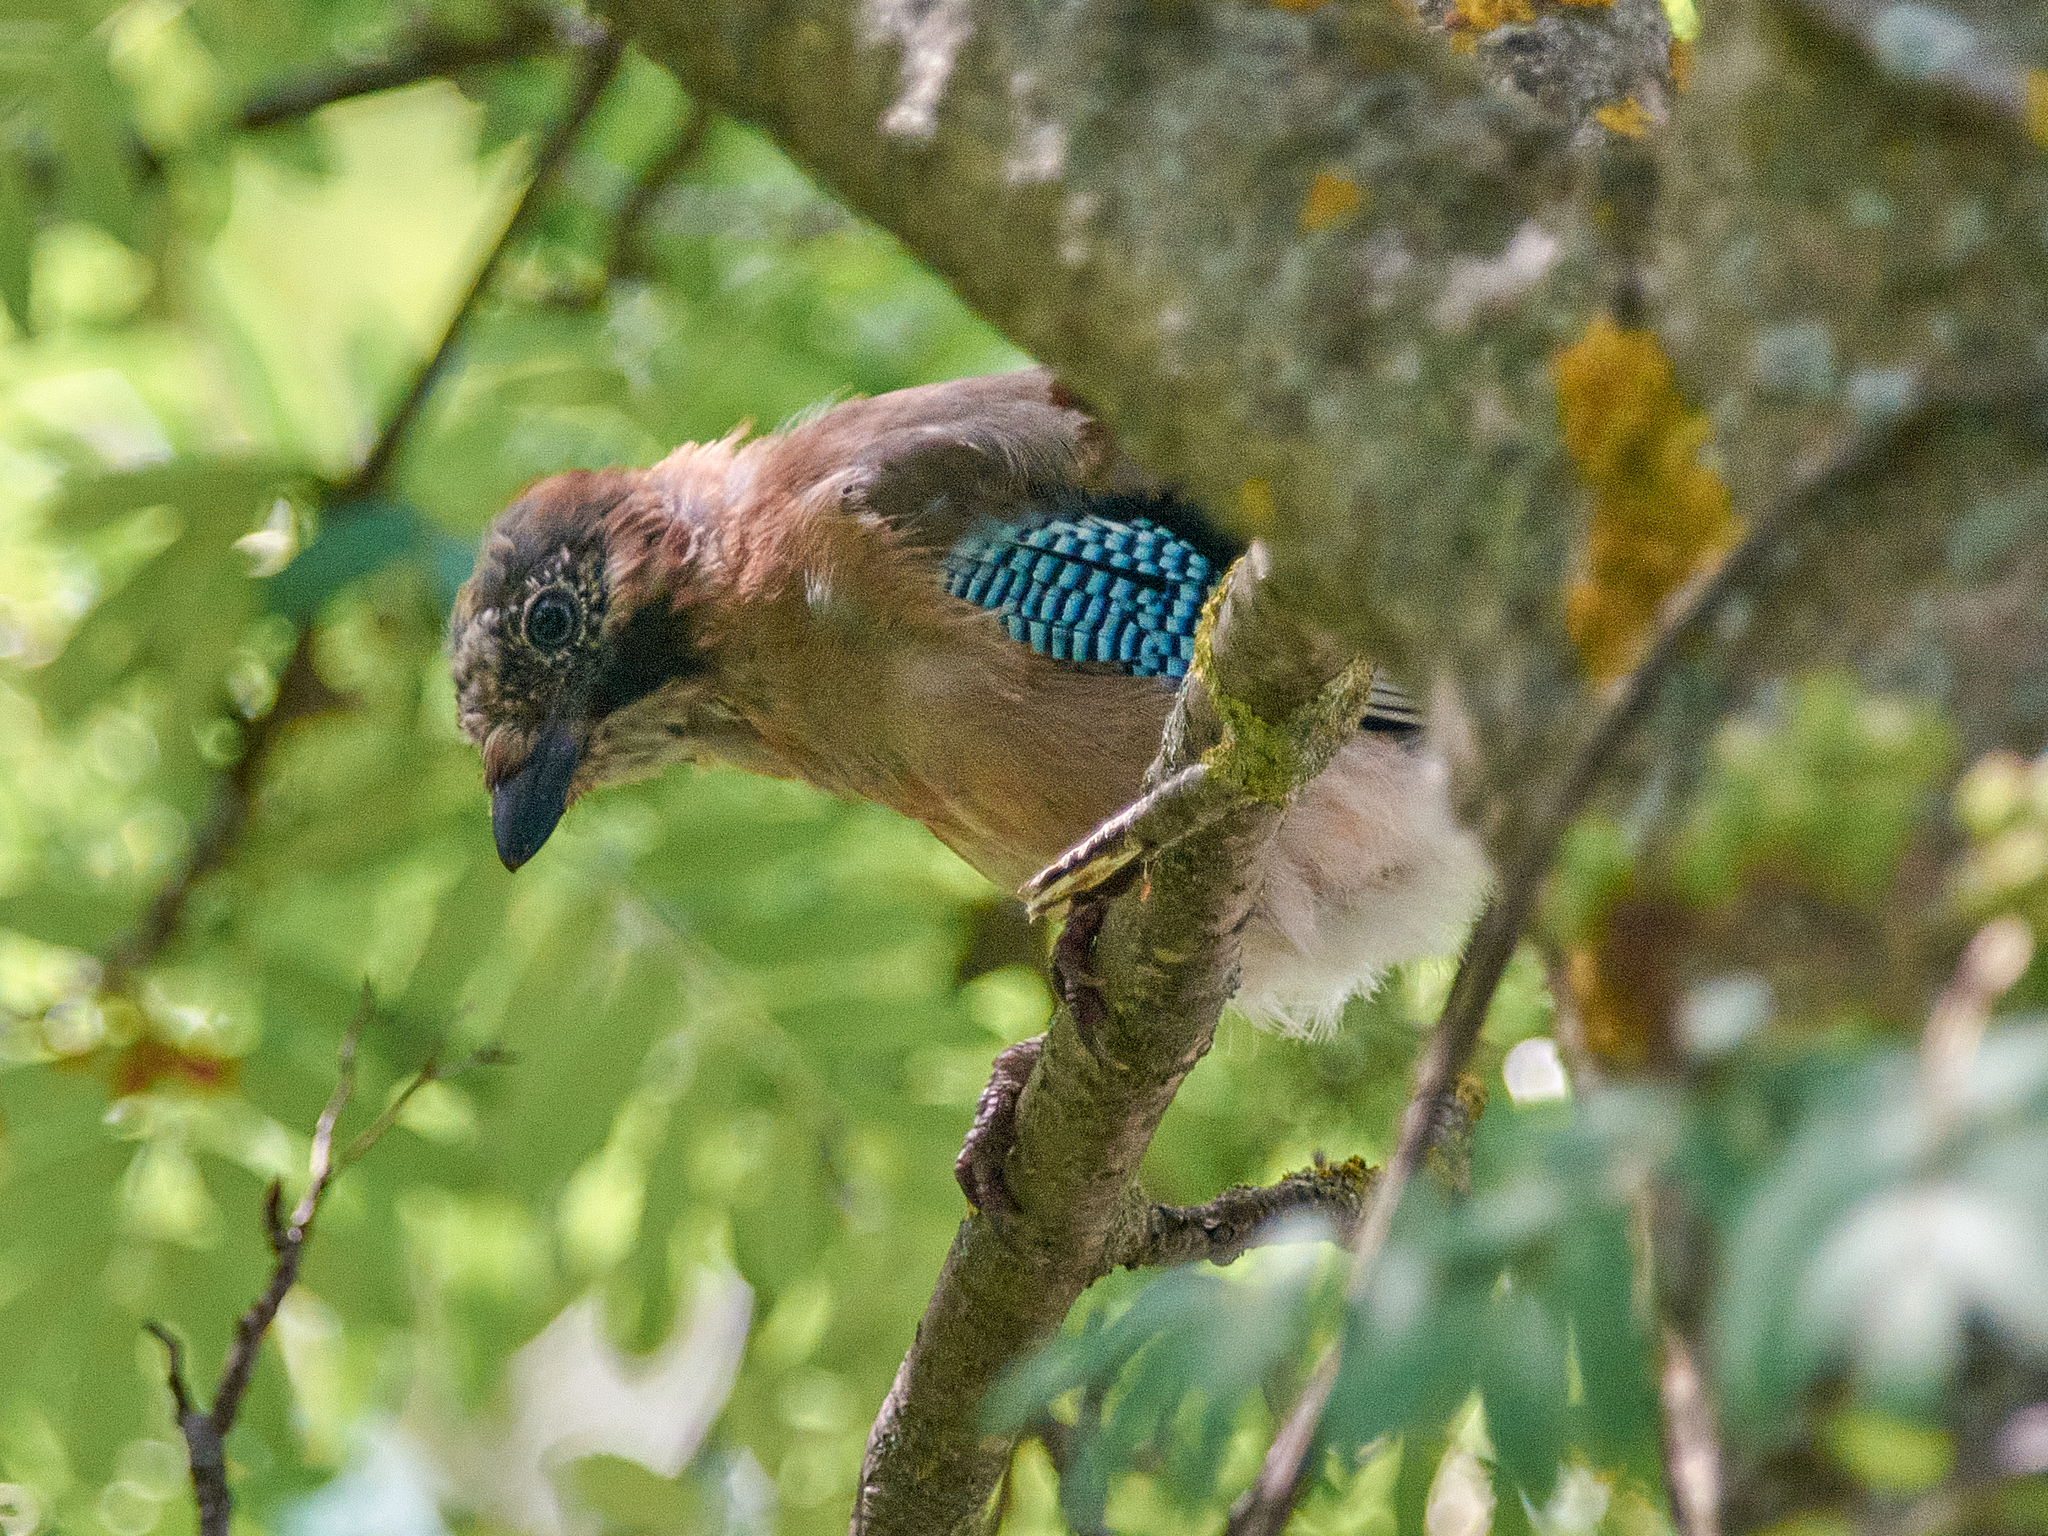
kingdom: Animalia
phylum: Chordata
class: Aves
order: Passeriformes
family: Corvidae
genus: Garrulus
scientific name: Garrulus glandarius
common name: Eurasian jay
